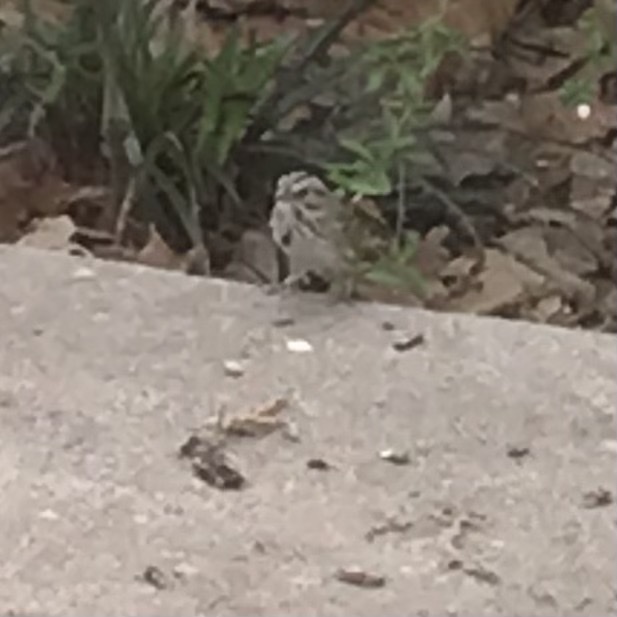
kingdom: Animalia
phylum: Chordata
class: Aves
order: Passeriformes
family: Passerellidae
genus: Melospiza
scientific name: Melospiza melodia
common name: Song sparrow
